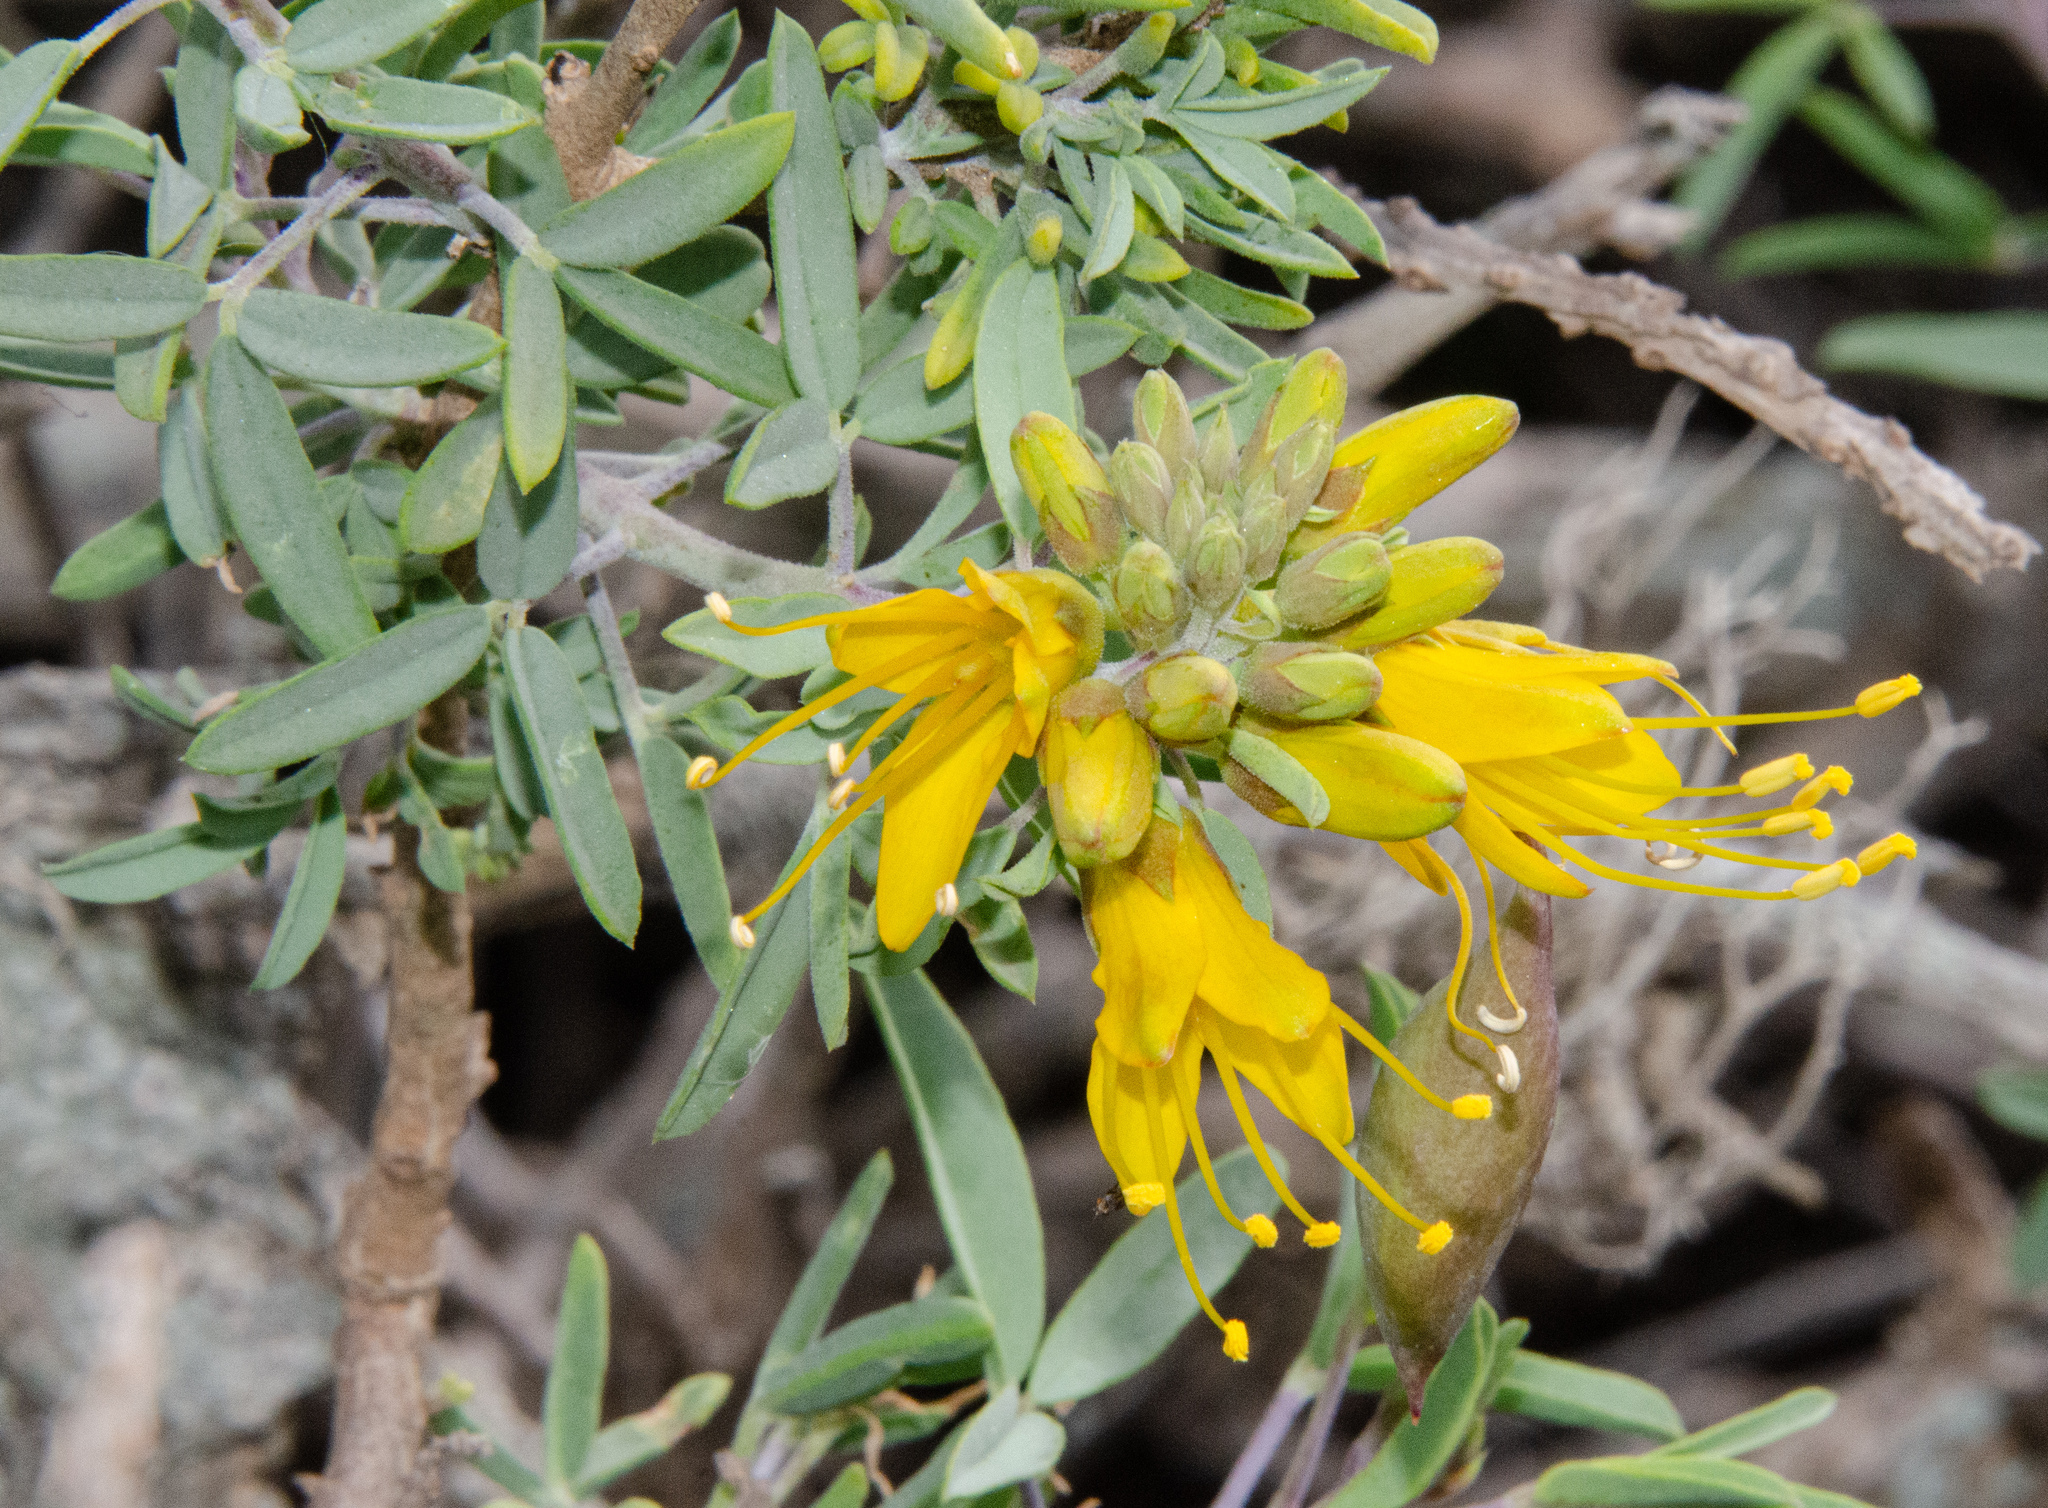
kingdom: Plantae
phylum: Tracheophyta
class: Magnoliopsida
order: Brassicales
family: Cleomaceae
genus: Cleomella
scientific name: Cleomella arborea
